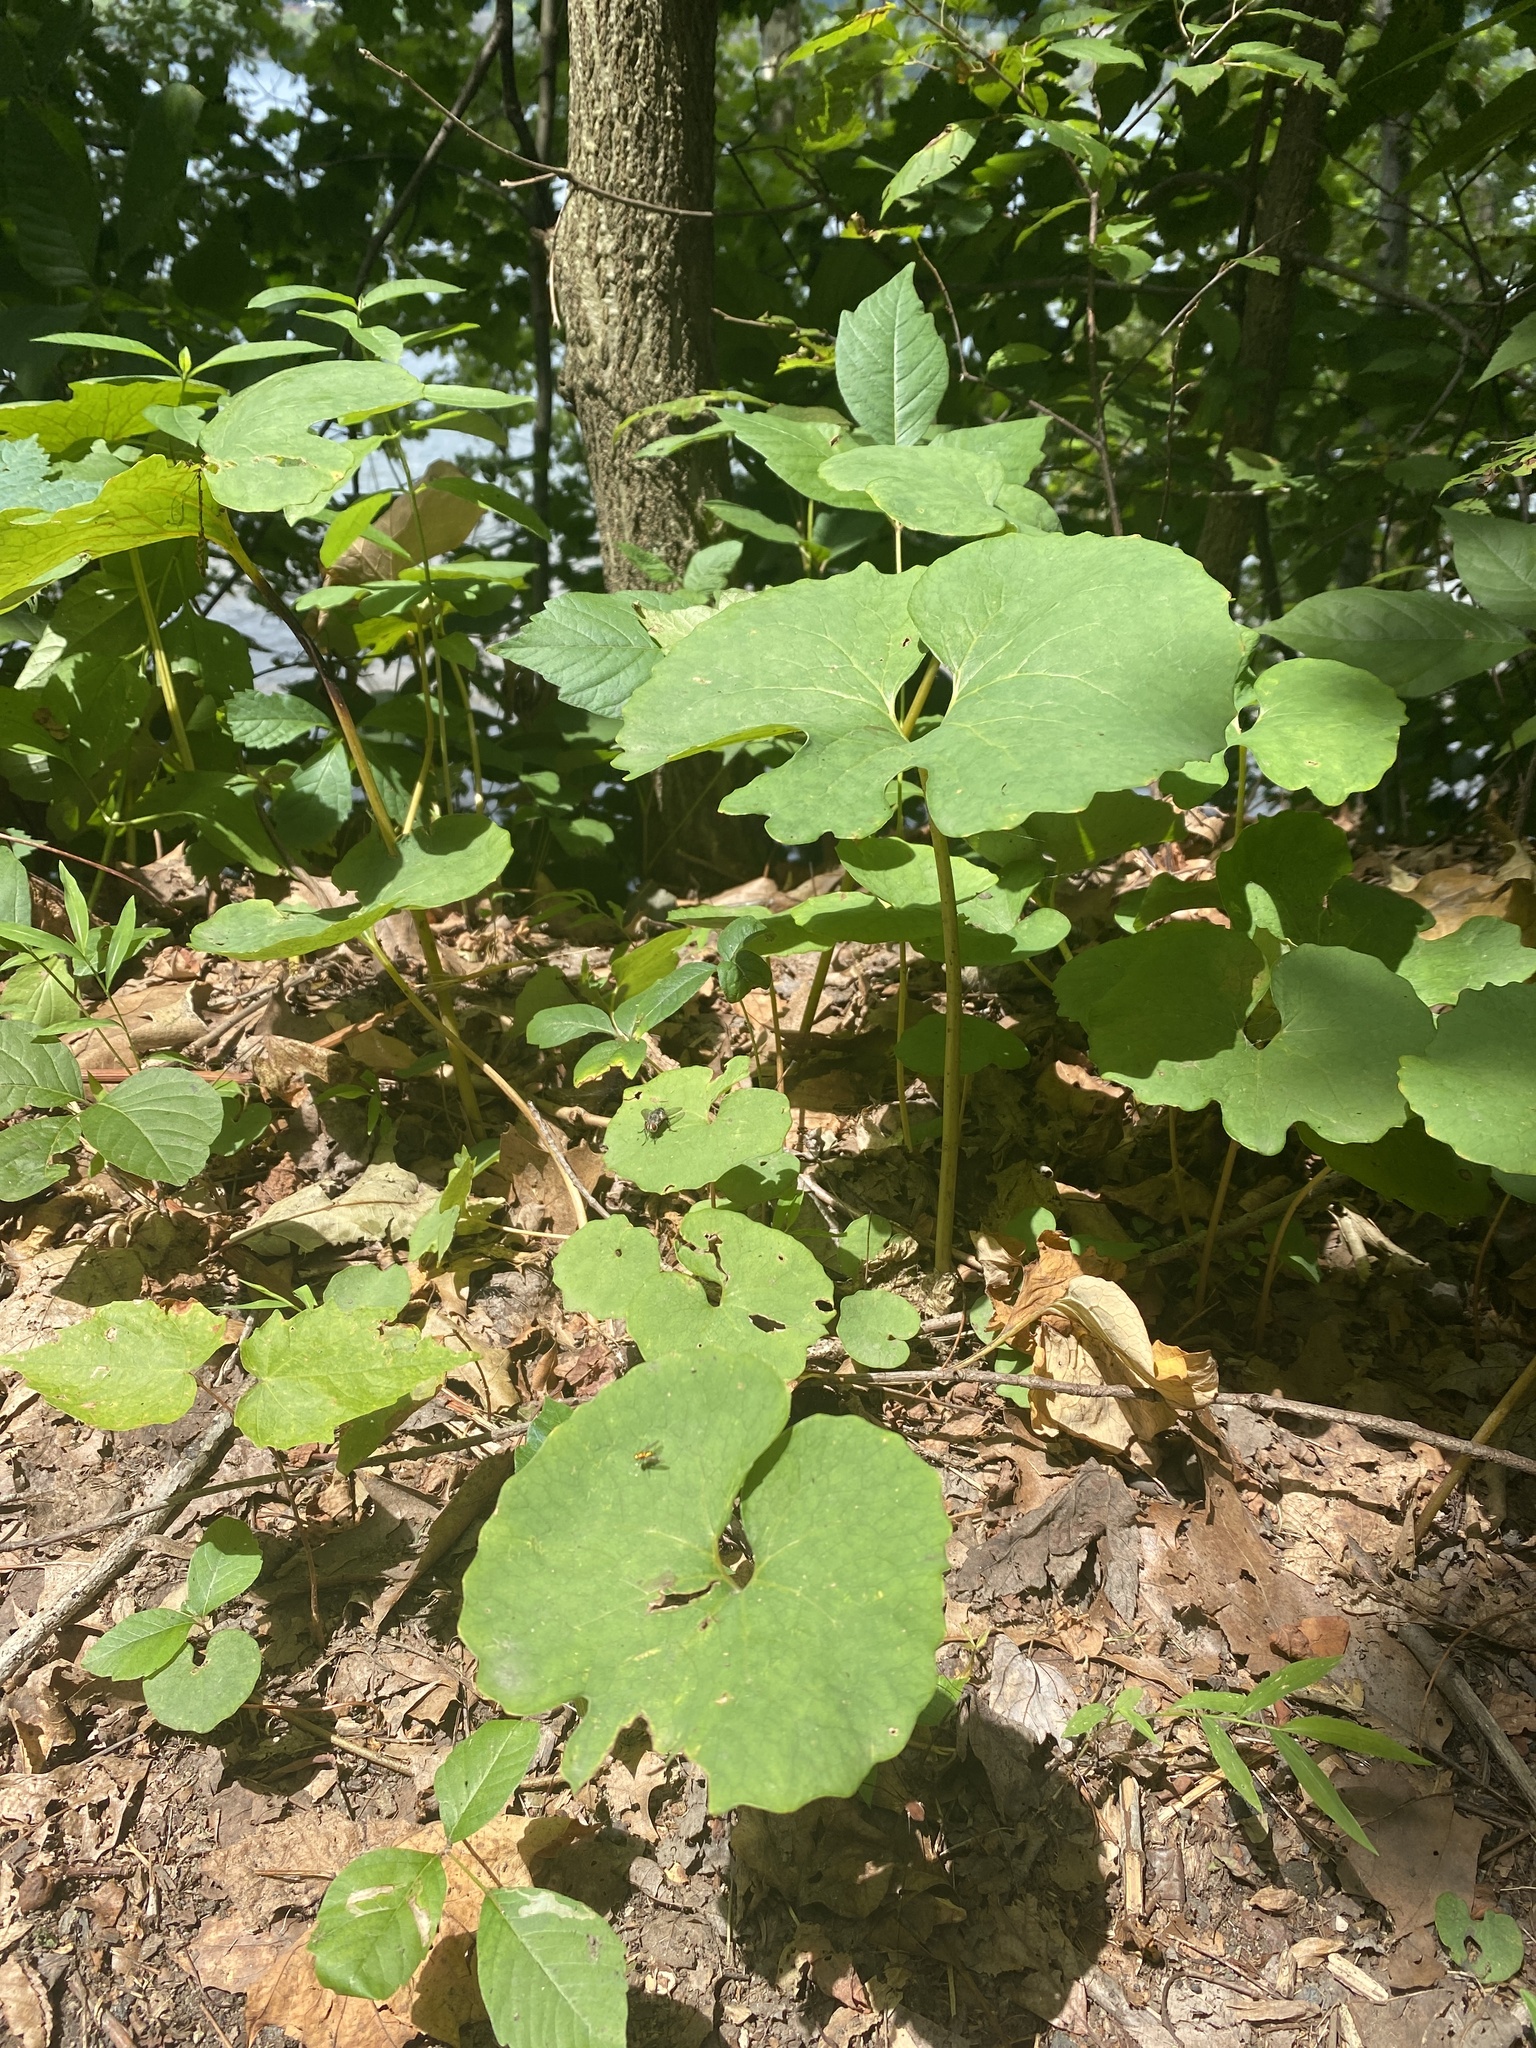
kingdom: Plantae
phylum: Tracheophyta
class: Magnoliopsida
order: Ranunculales
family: Papaveraceae
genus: Sanguinaria
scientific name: Sanguinaria canadensis
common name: Bloodroot
